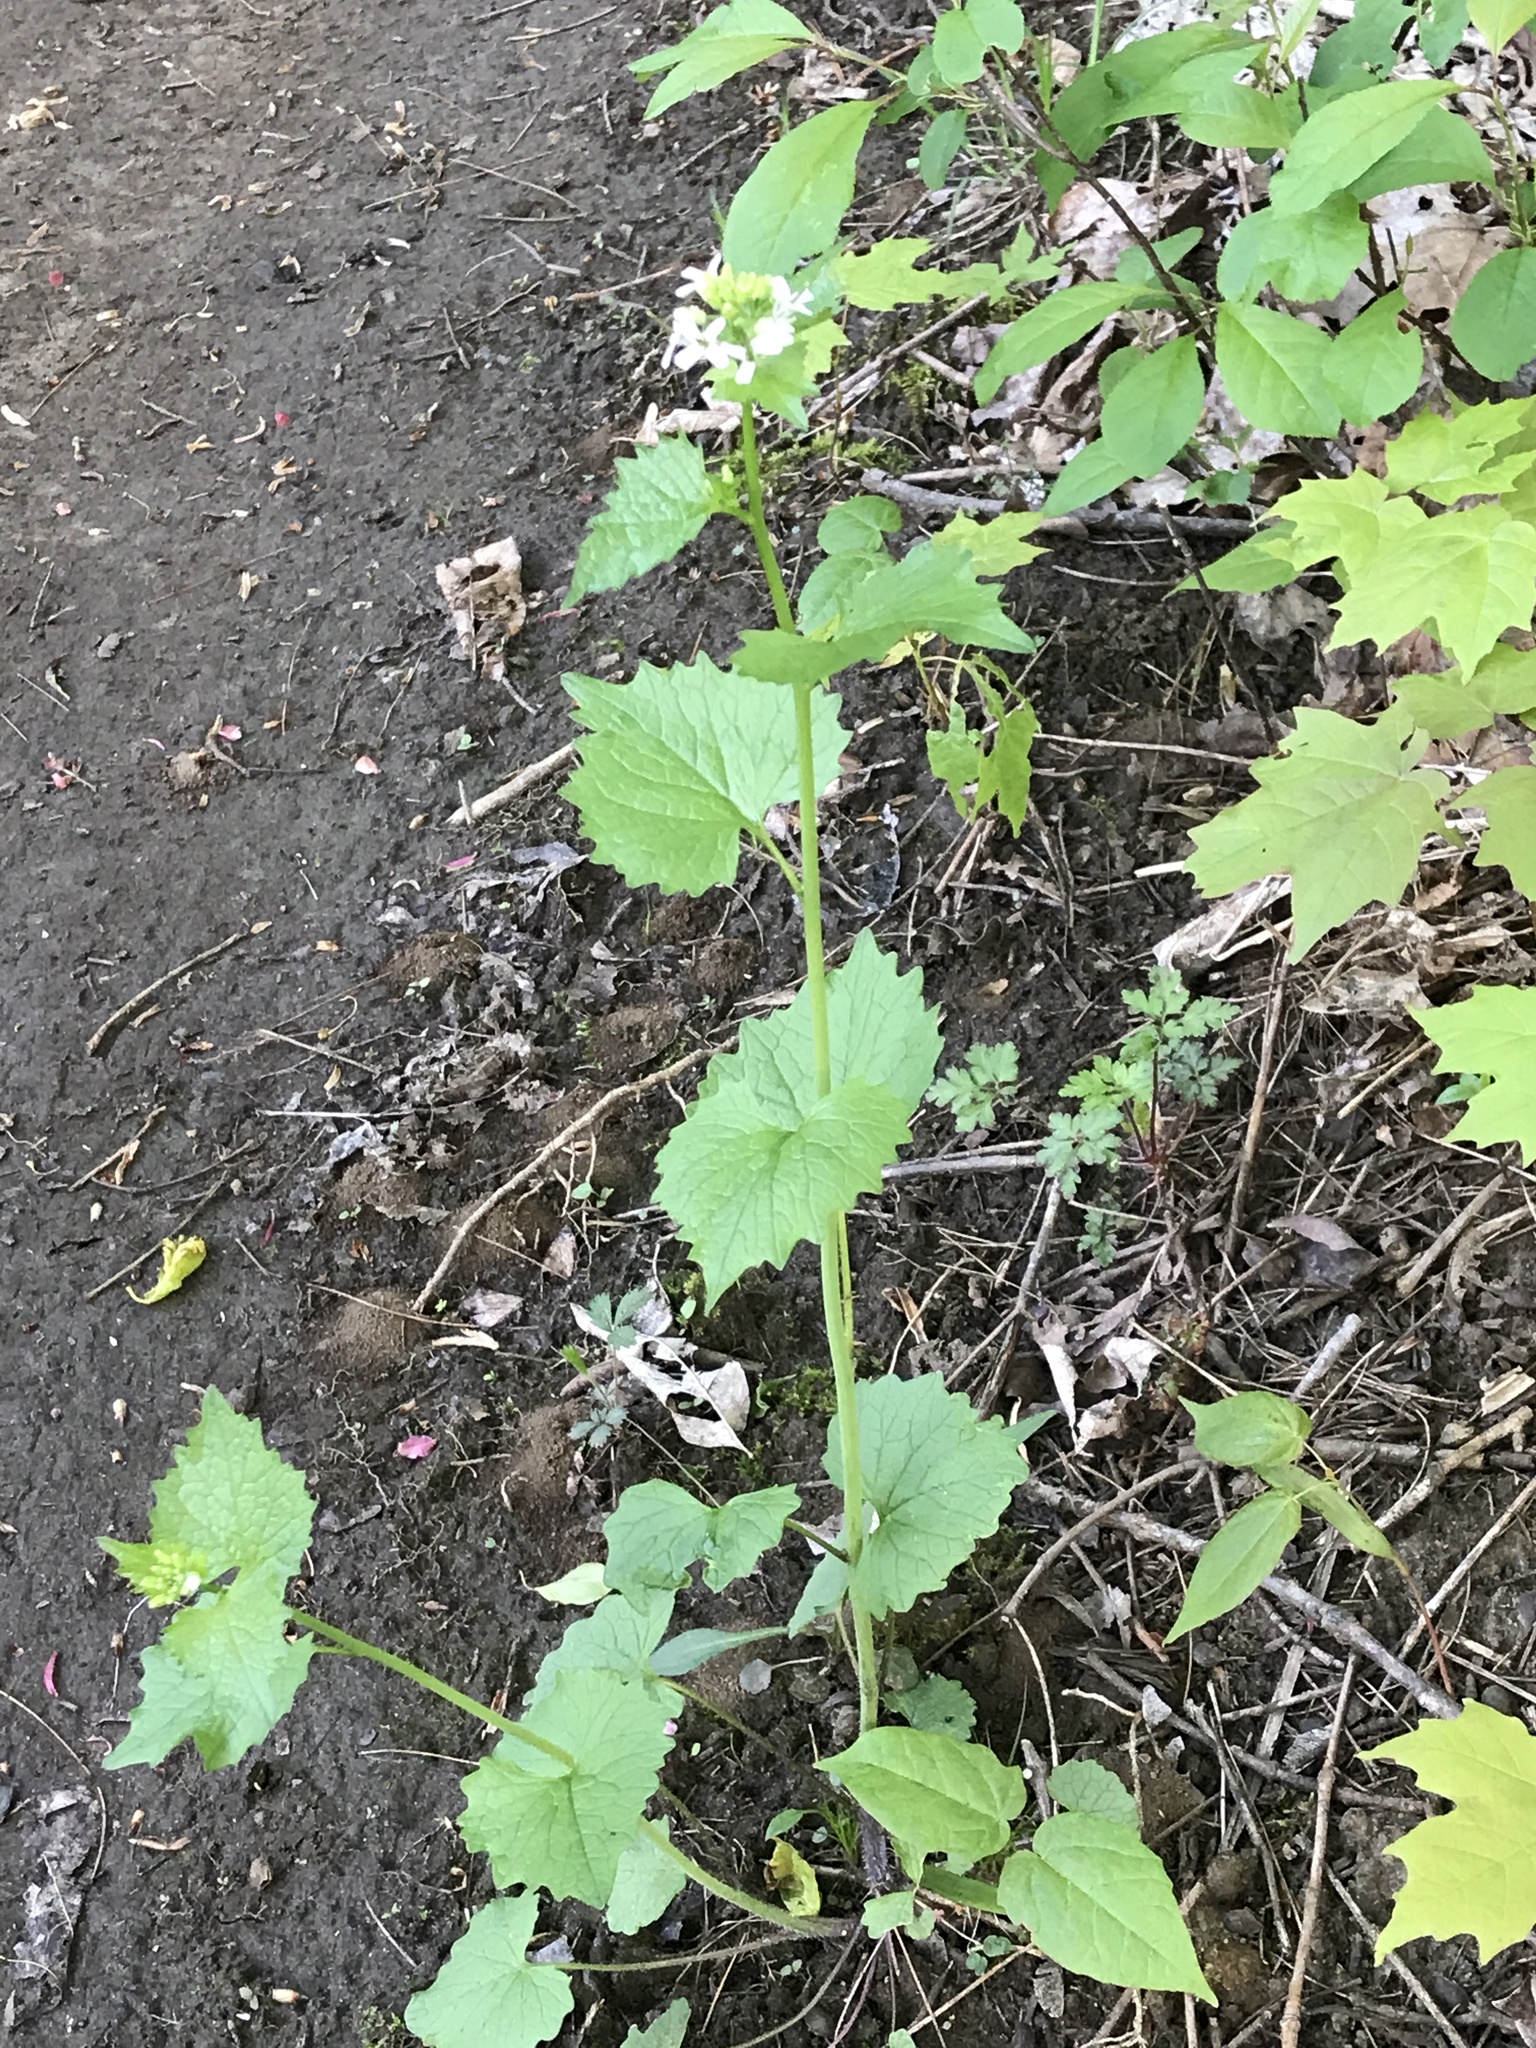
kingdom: Plantae
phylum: Tracheophyta
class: Magnoliopsida
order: Brassicales
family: Brassicaceae
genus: Alliaria
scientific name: Alliaria petiolata
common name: Garlic mustard
